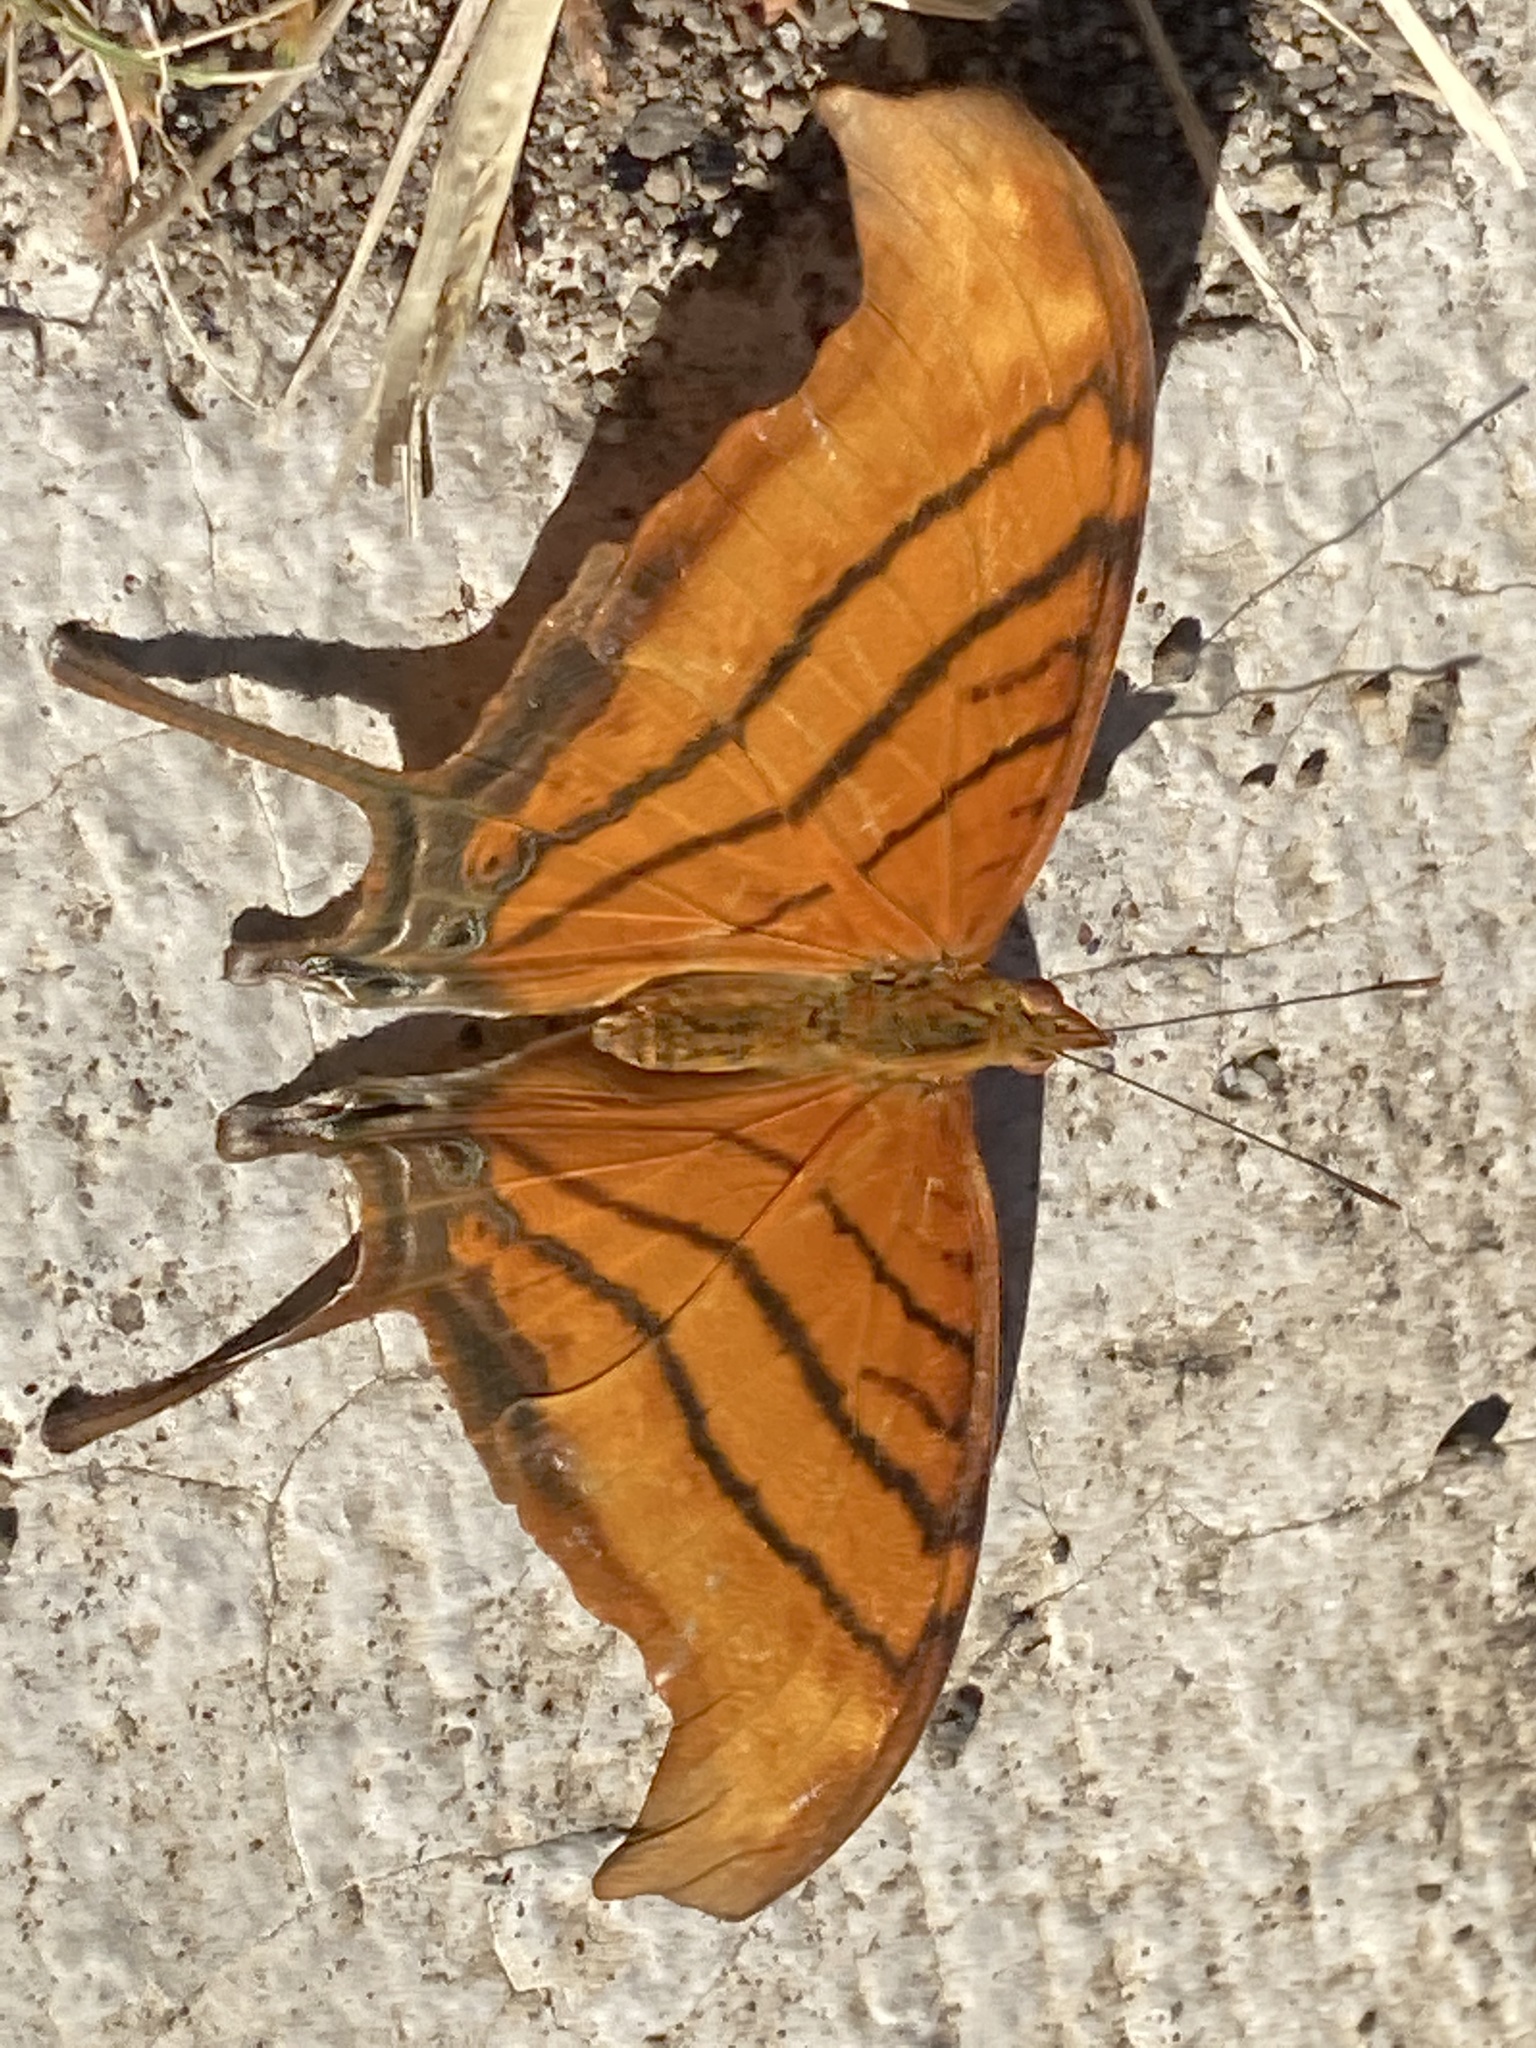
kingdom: Animalia
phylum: Arthropoda
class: Insecta
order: Lepidoptera
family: Nymphalidae
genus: Marpesia
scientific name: Marpesia petreus
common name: Red dagger wing
